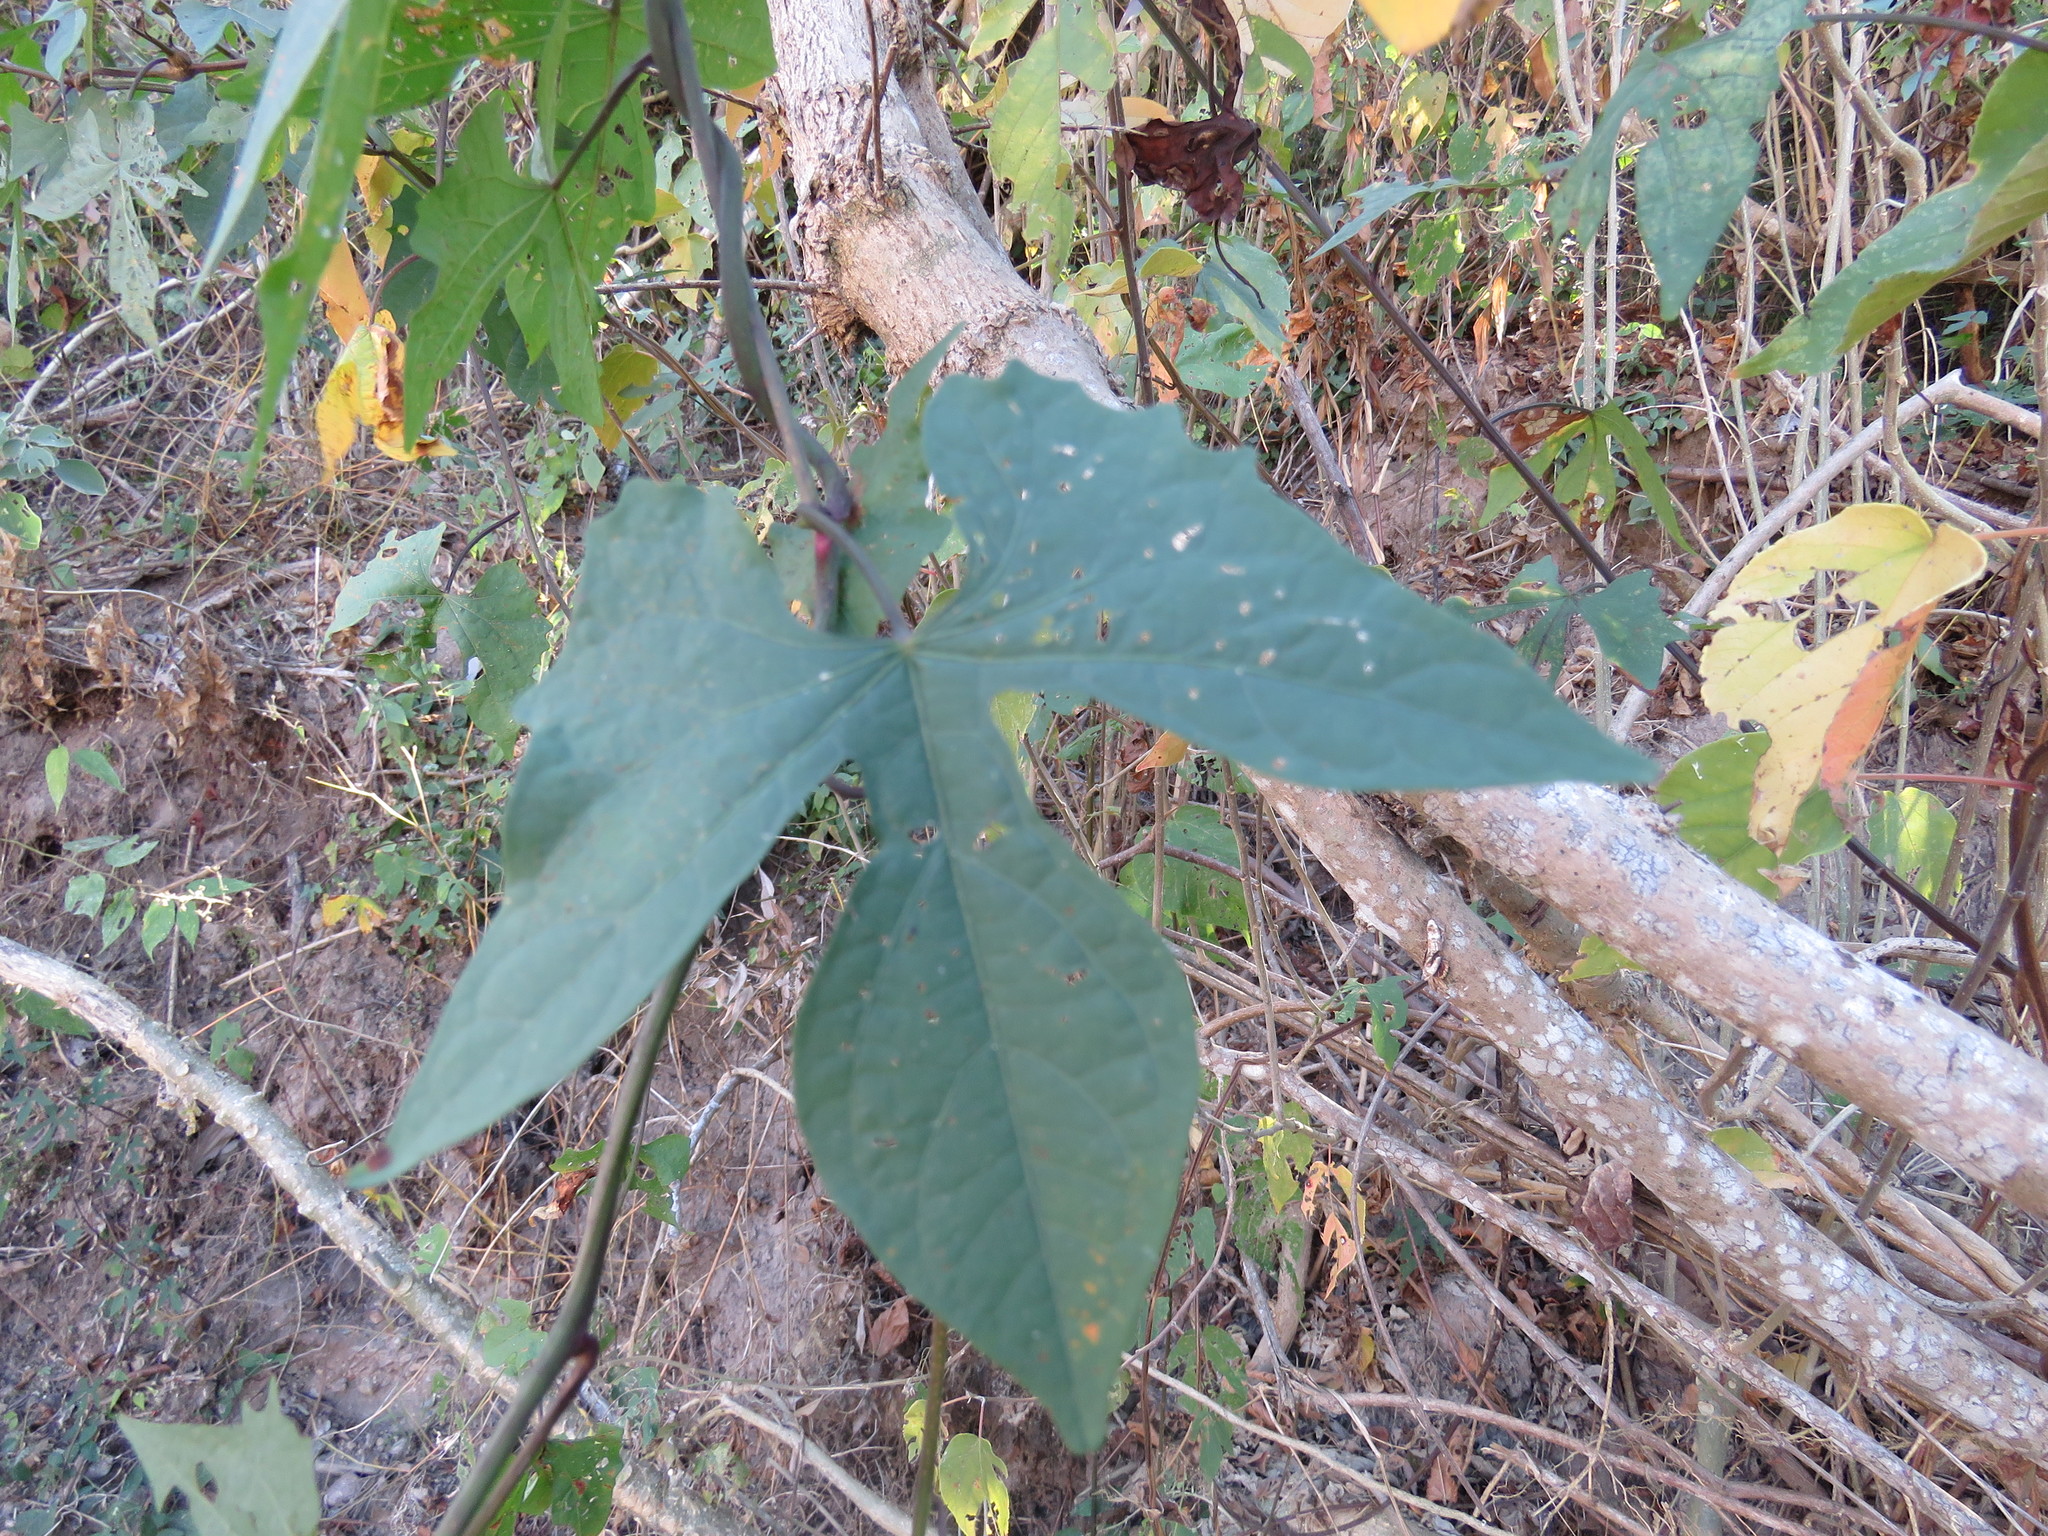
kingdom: Plantae
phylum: Tracheophyta
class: Magnoliopsida
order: Solanales
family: Convolvulaceae
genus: Ipomoea
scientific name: Ipomoea neei
